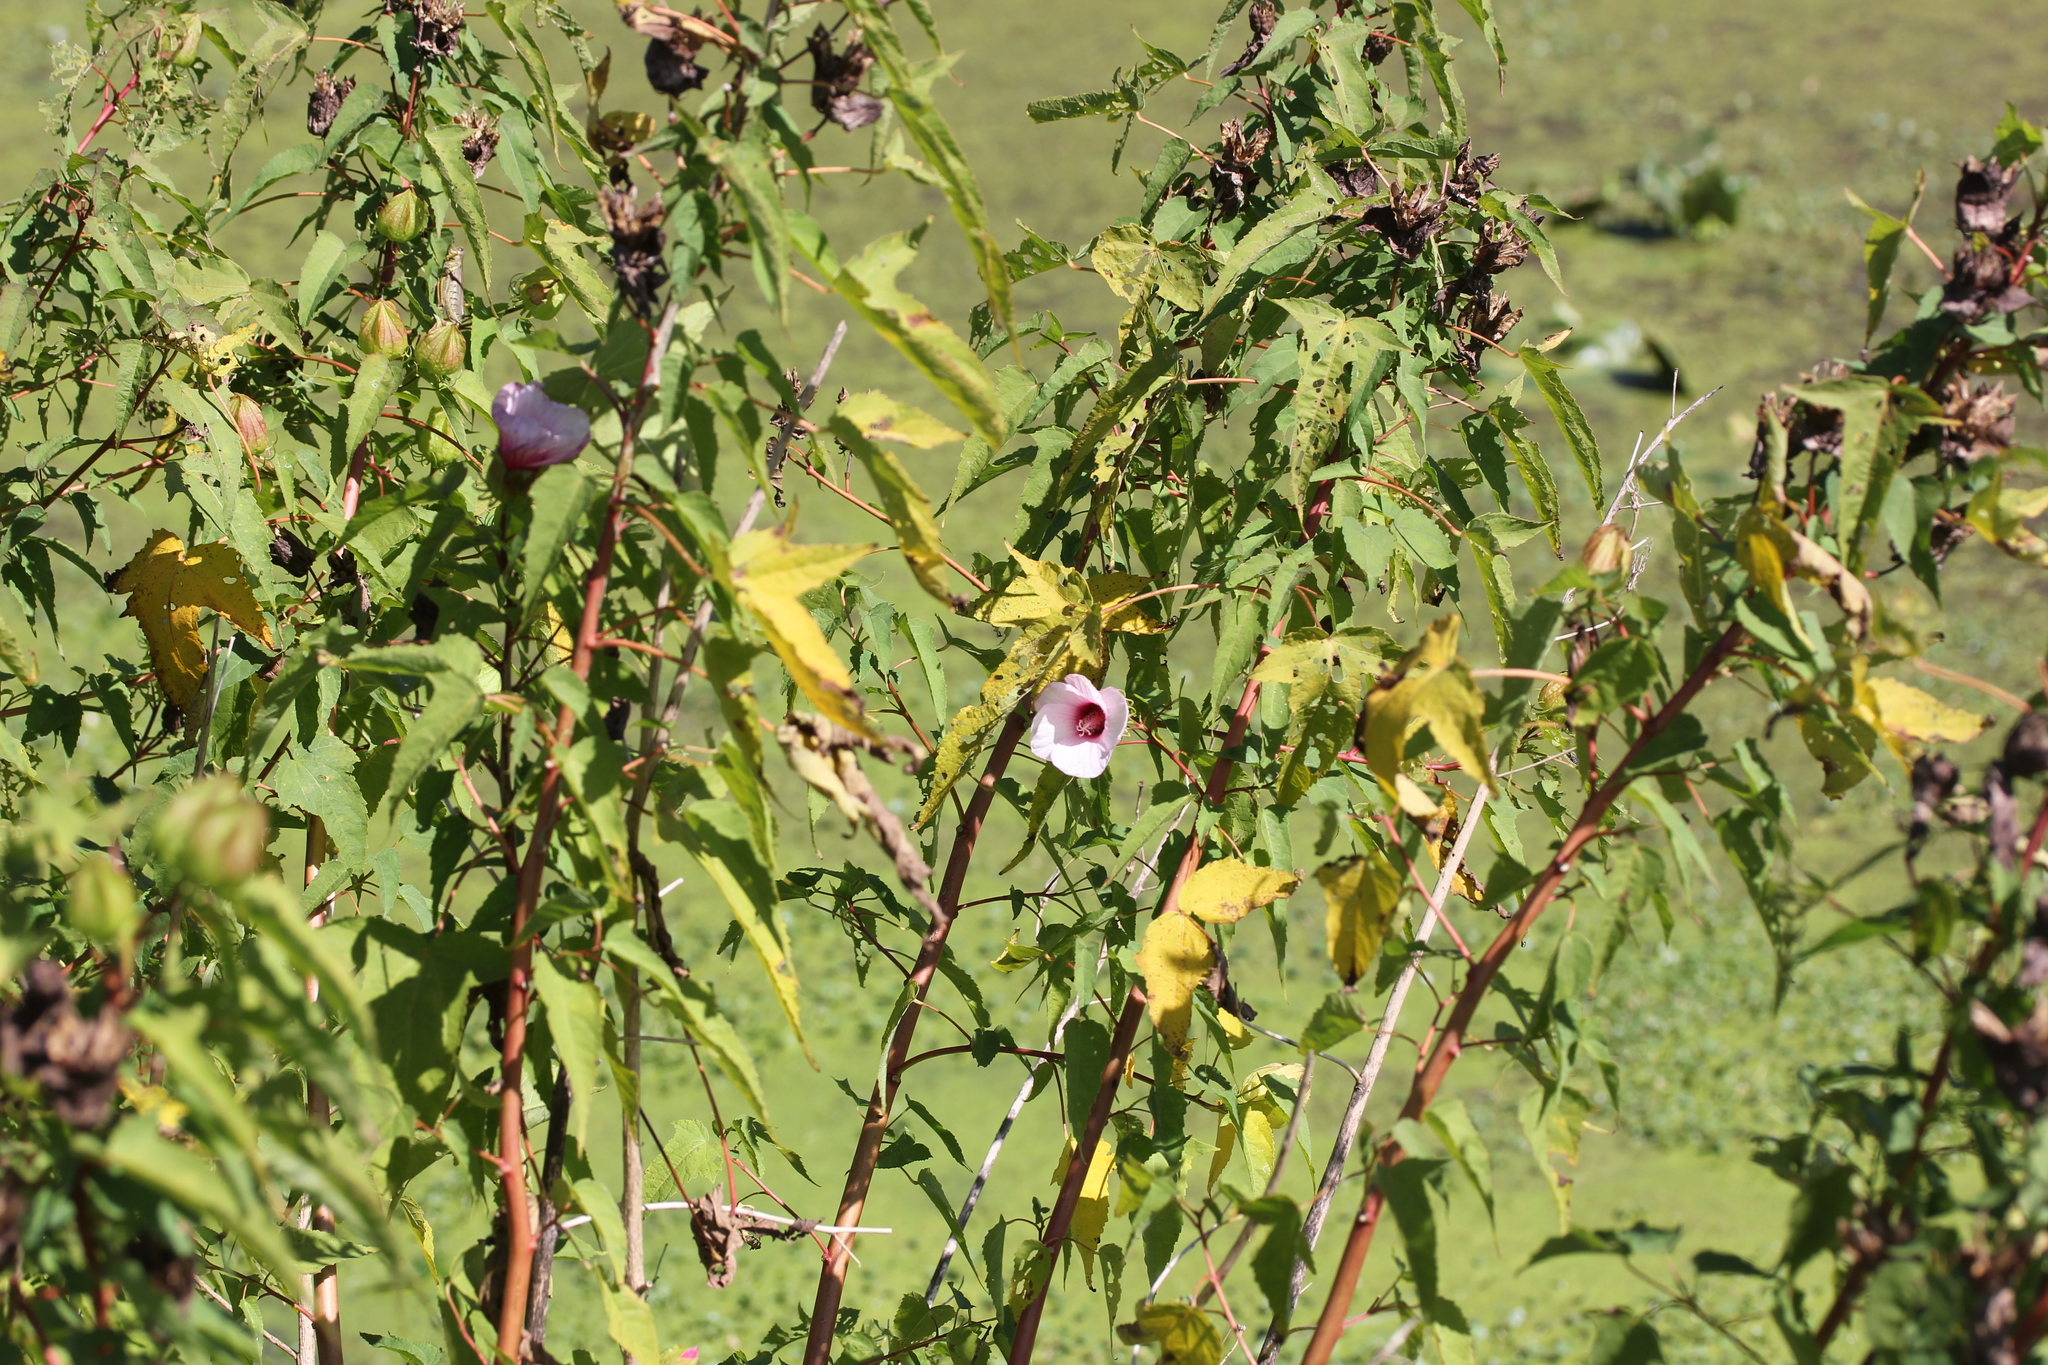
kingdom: Plantae
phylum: Tracheophyta
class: Magnoliopsida
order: Malvales
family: Malvaceae
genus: Hibiscus
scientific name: Hibiscus laevis
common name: Scarlet rose-mallow
